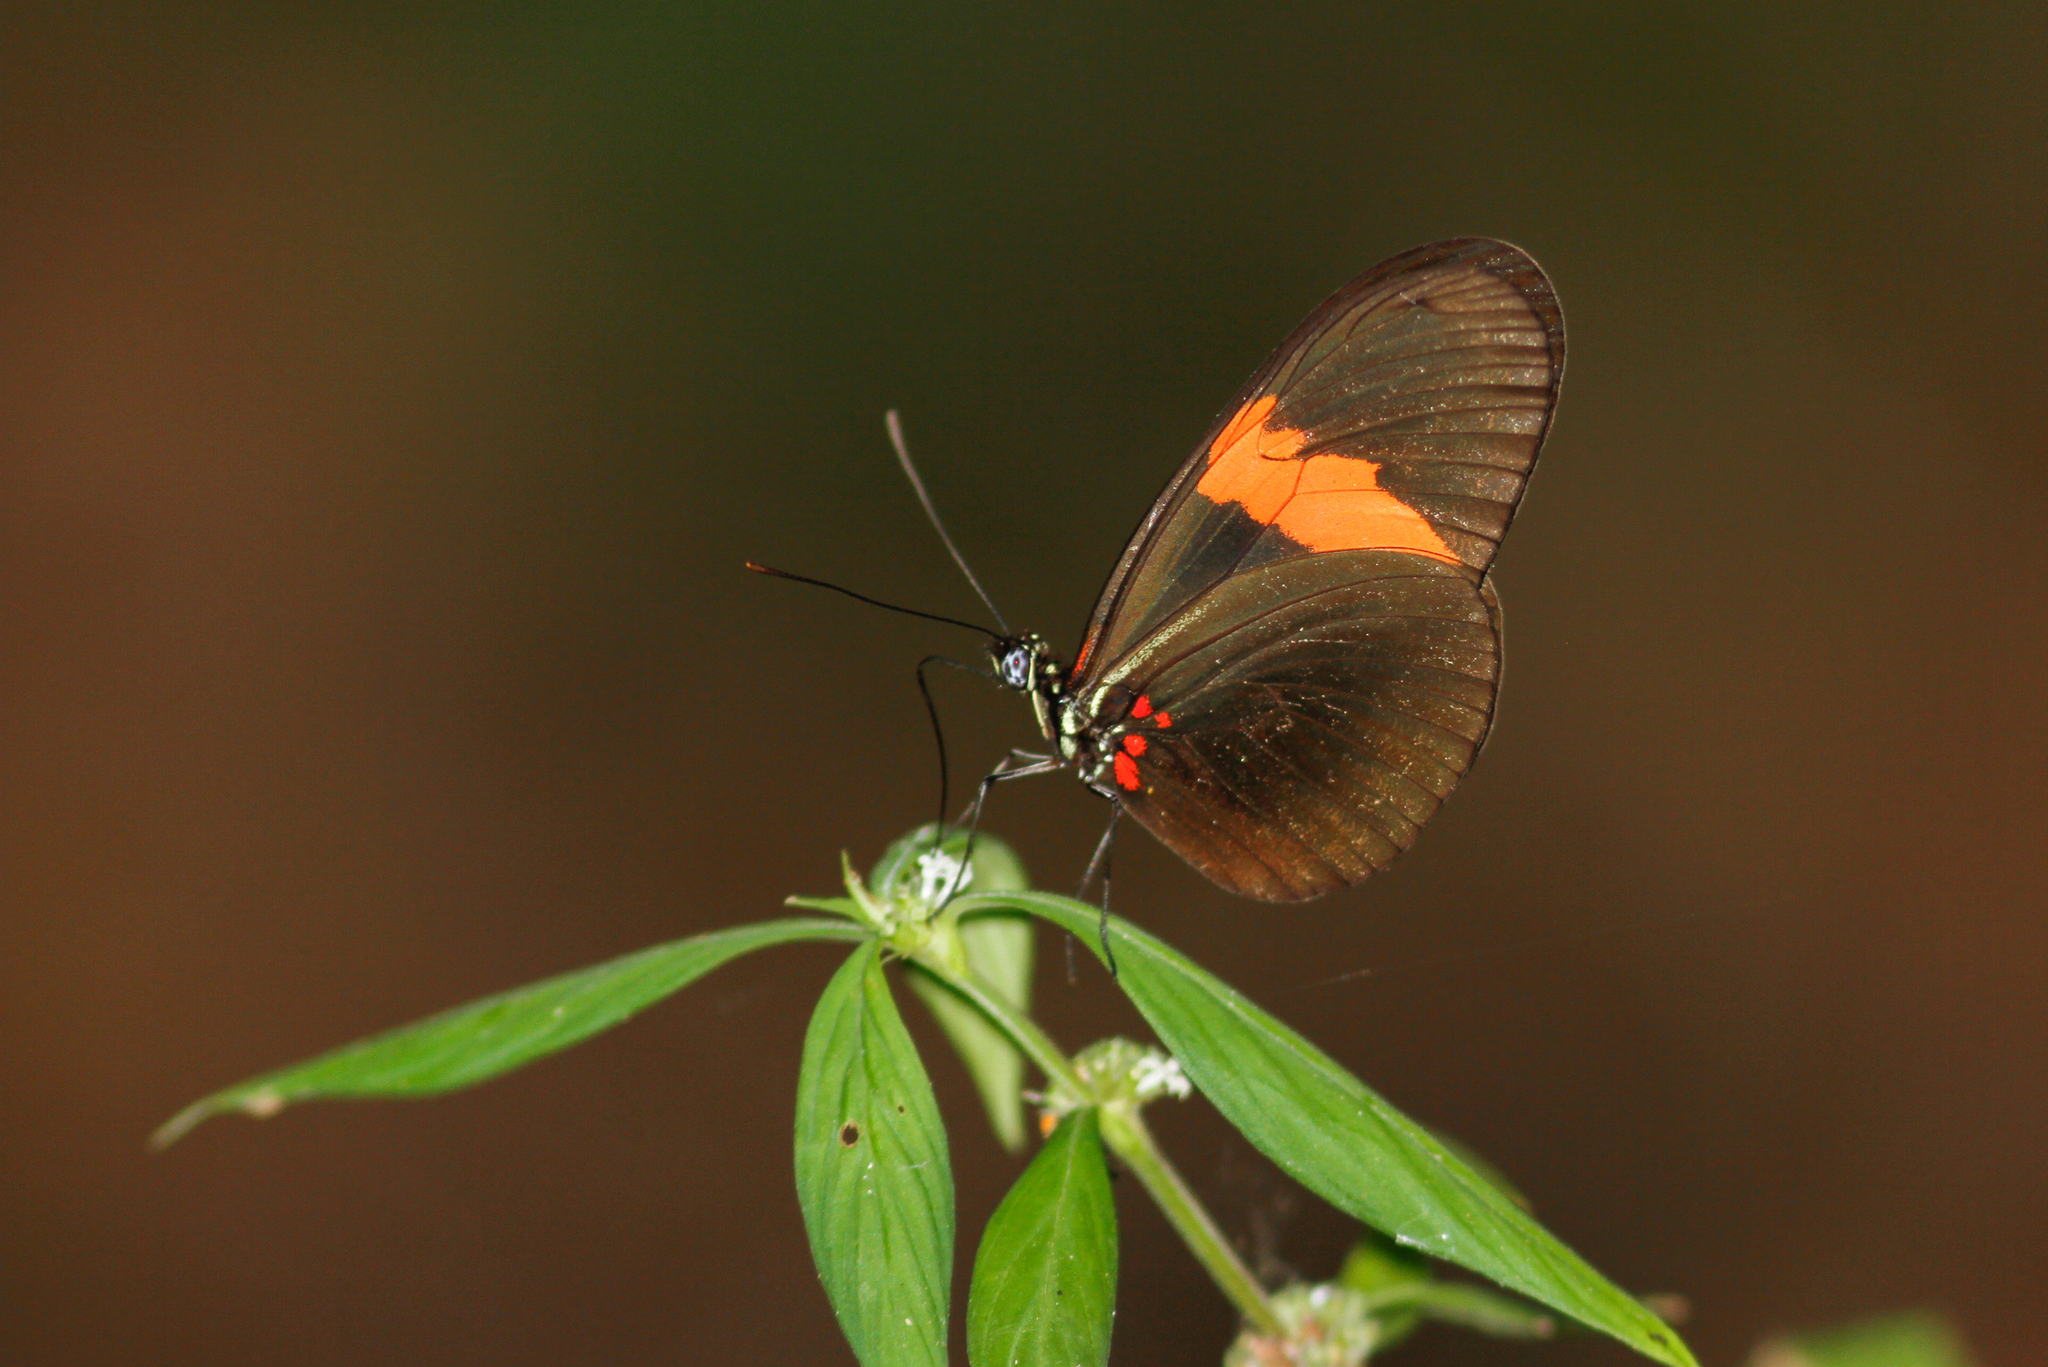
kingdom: Animalia
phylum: Arthropoda
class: Insecta
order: Lepidoptera
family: Nymphalidae
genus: Heliconius
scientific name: Heliconius erato
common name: Common patch longwing
